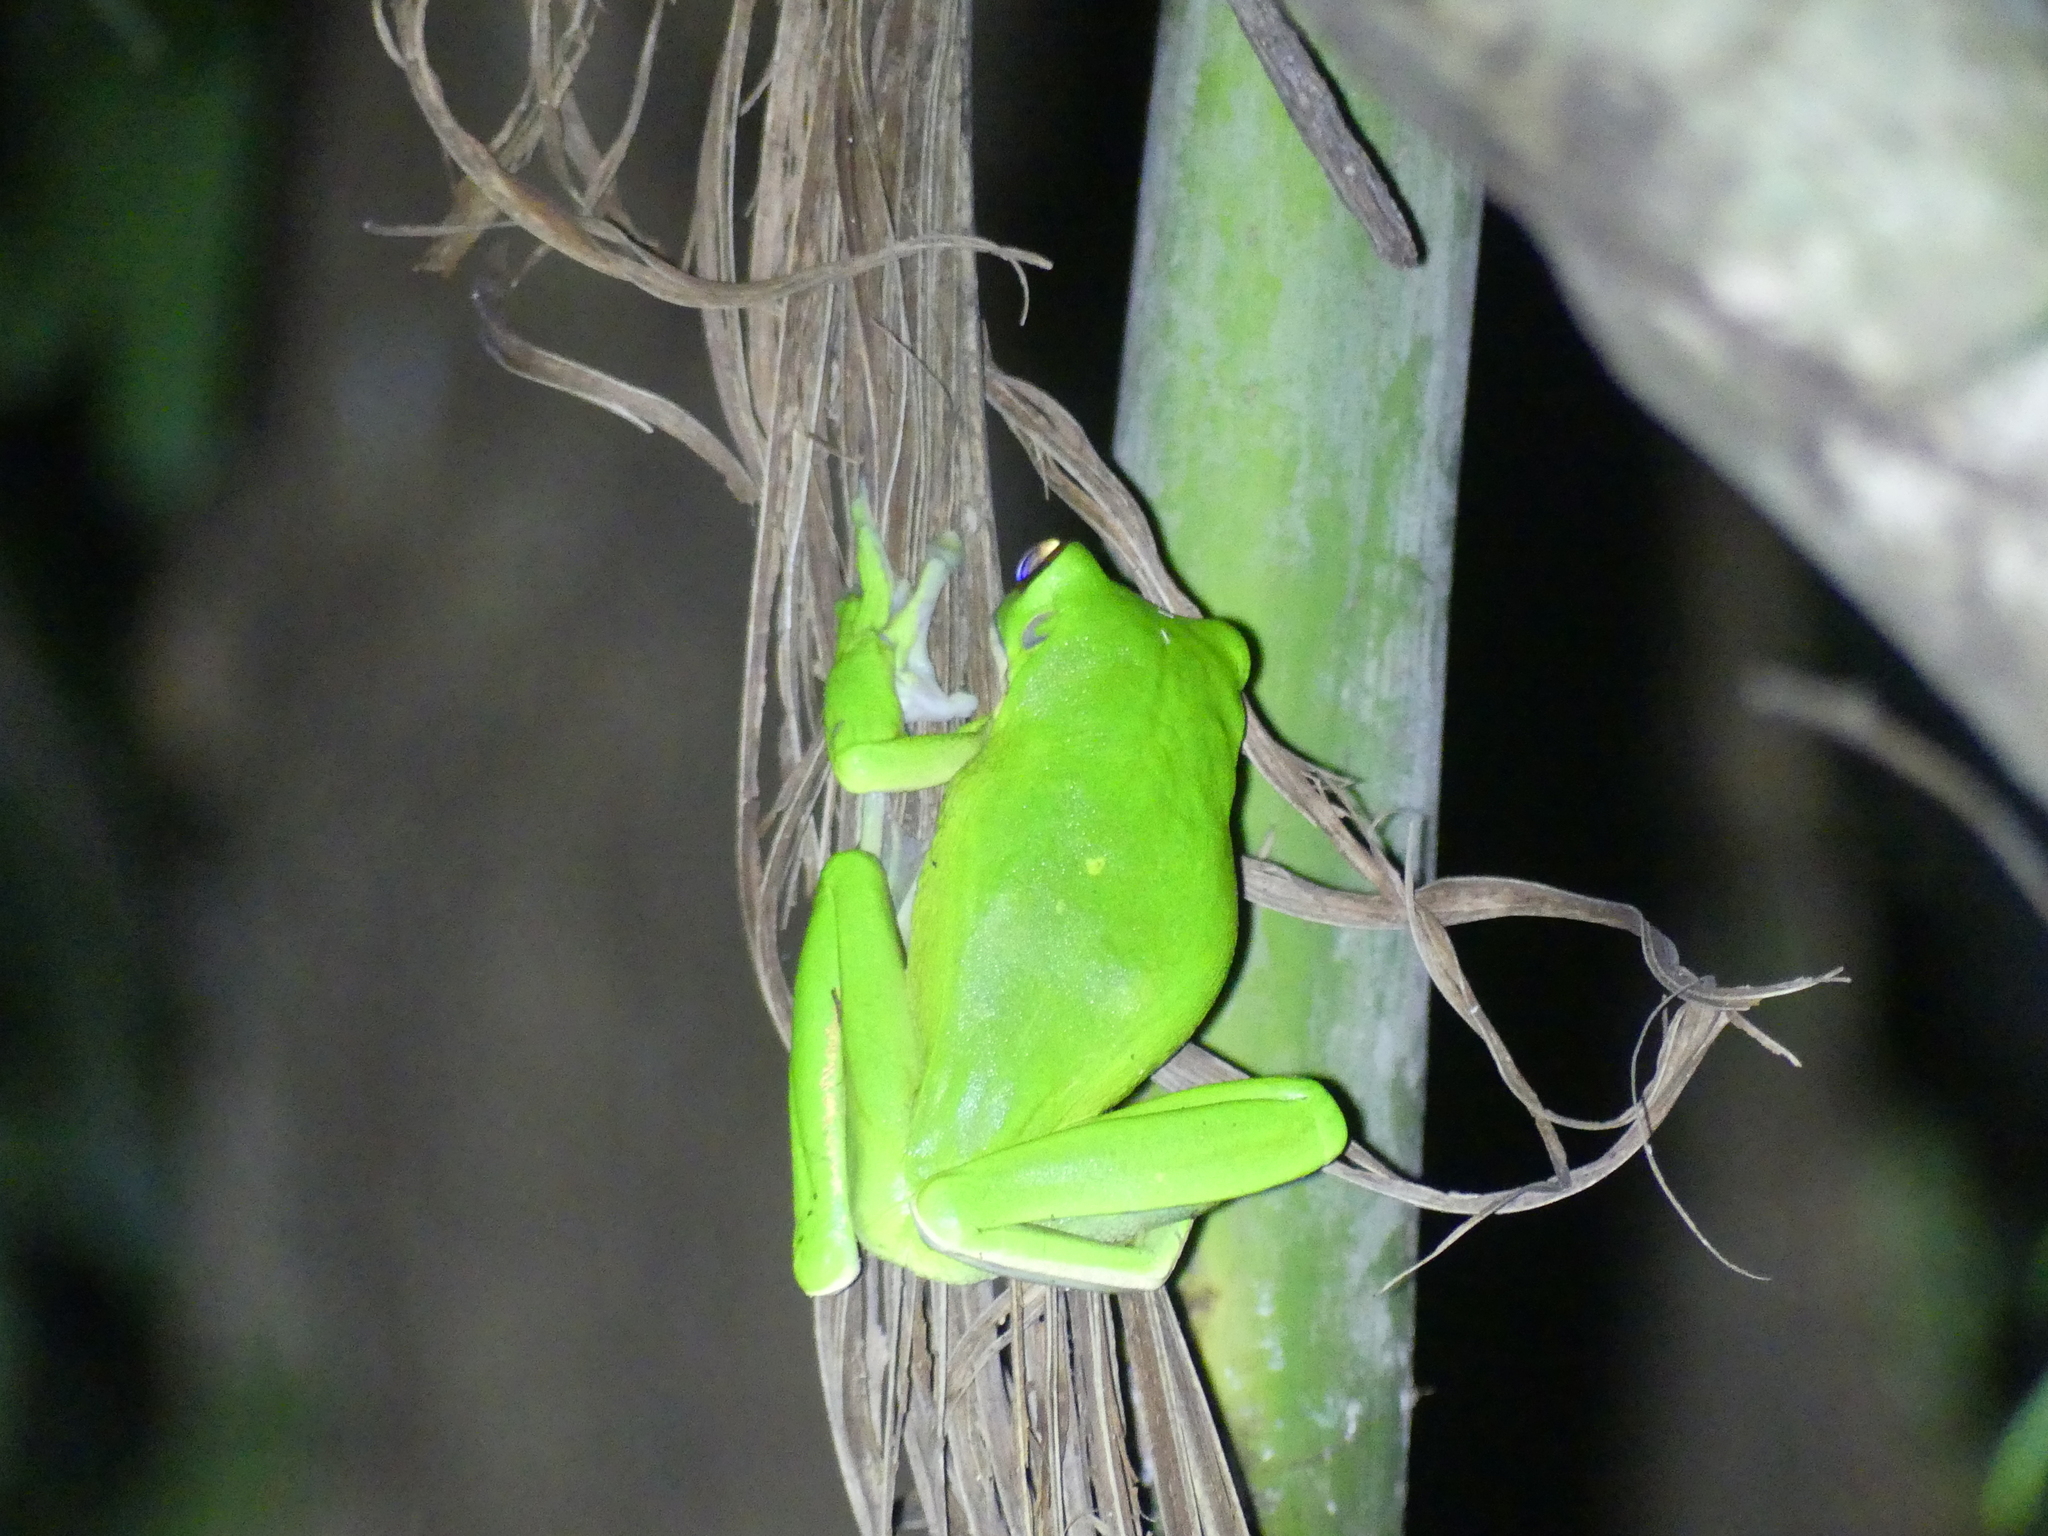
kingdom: Animalia
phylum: Chordata
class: Amphibia
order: Anura
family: Pelodryadidae
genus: Nyctimystes
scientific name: Nyctimystes infrafrenatus
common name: Australian giant treefrog
